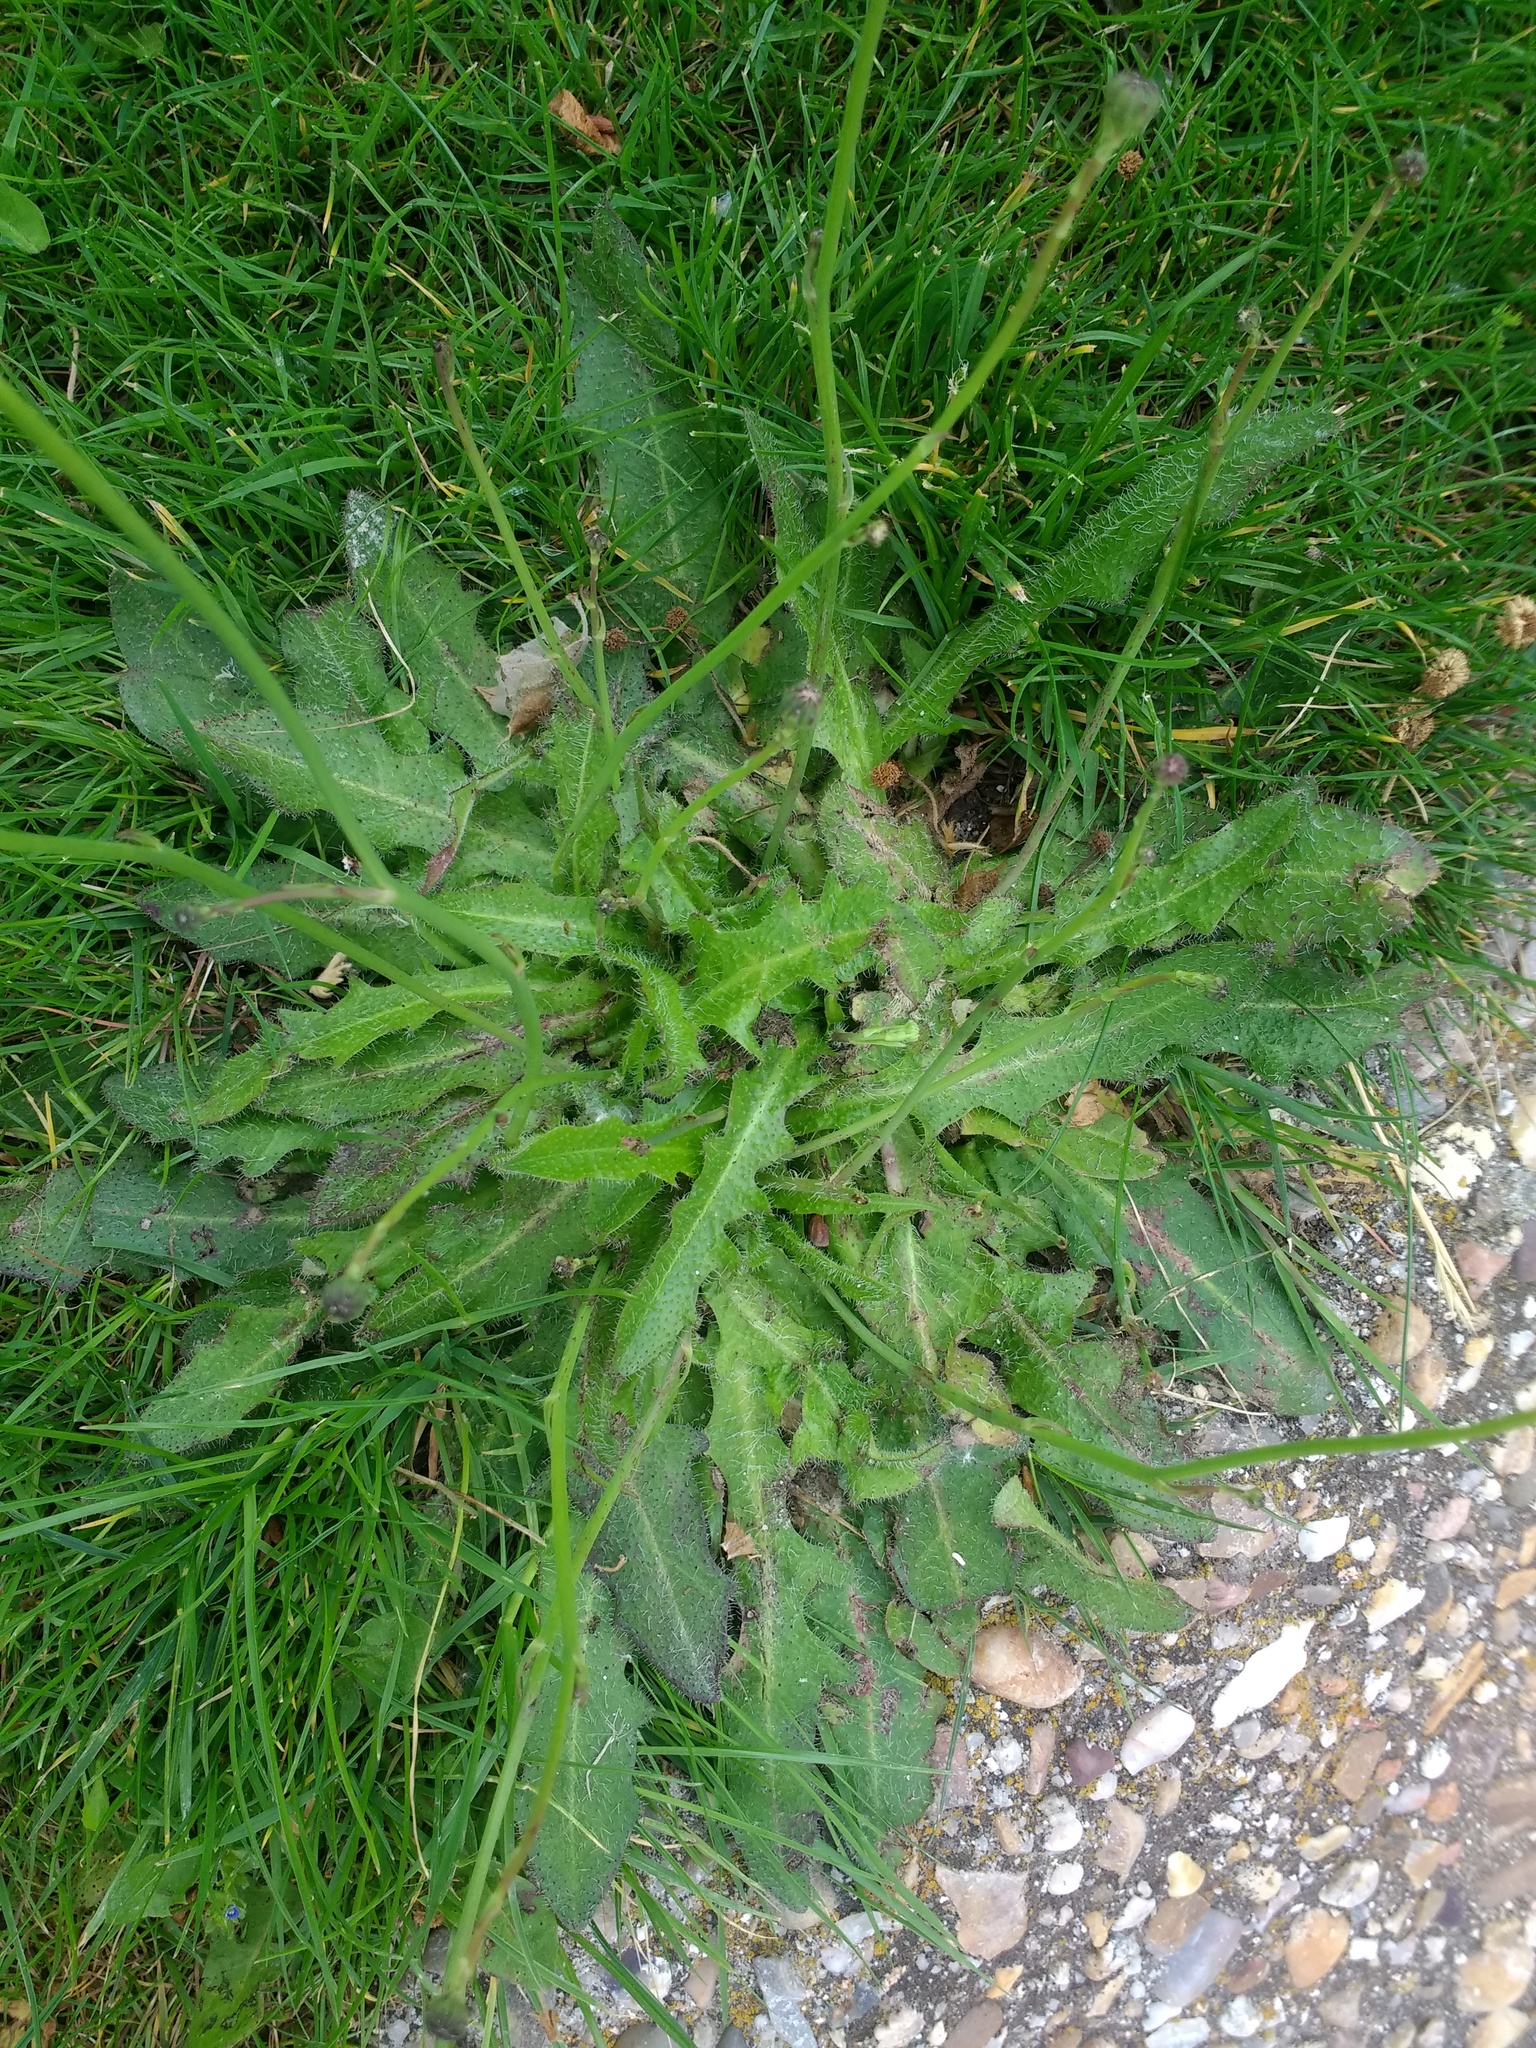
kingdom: Plantae
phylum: Tracheophyta
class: Magnoliopsida
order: Asterales
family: Asteraceae
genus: Hypochaeris
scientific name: Hypochaeris radicata
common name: Flatweed
